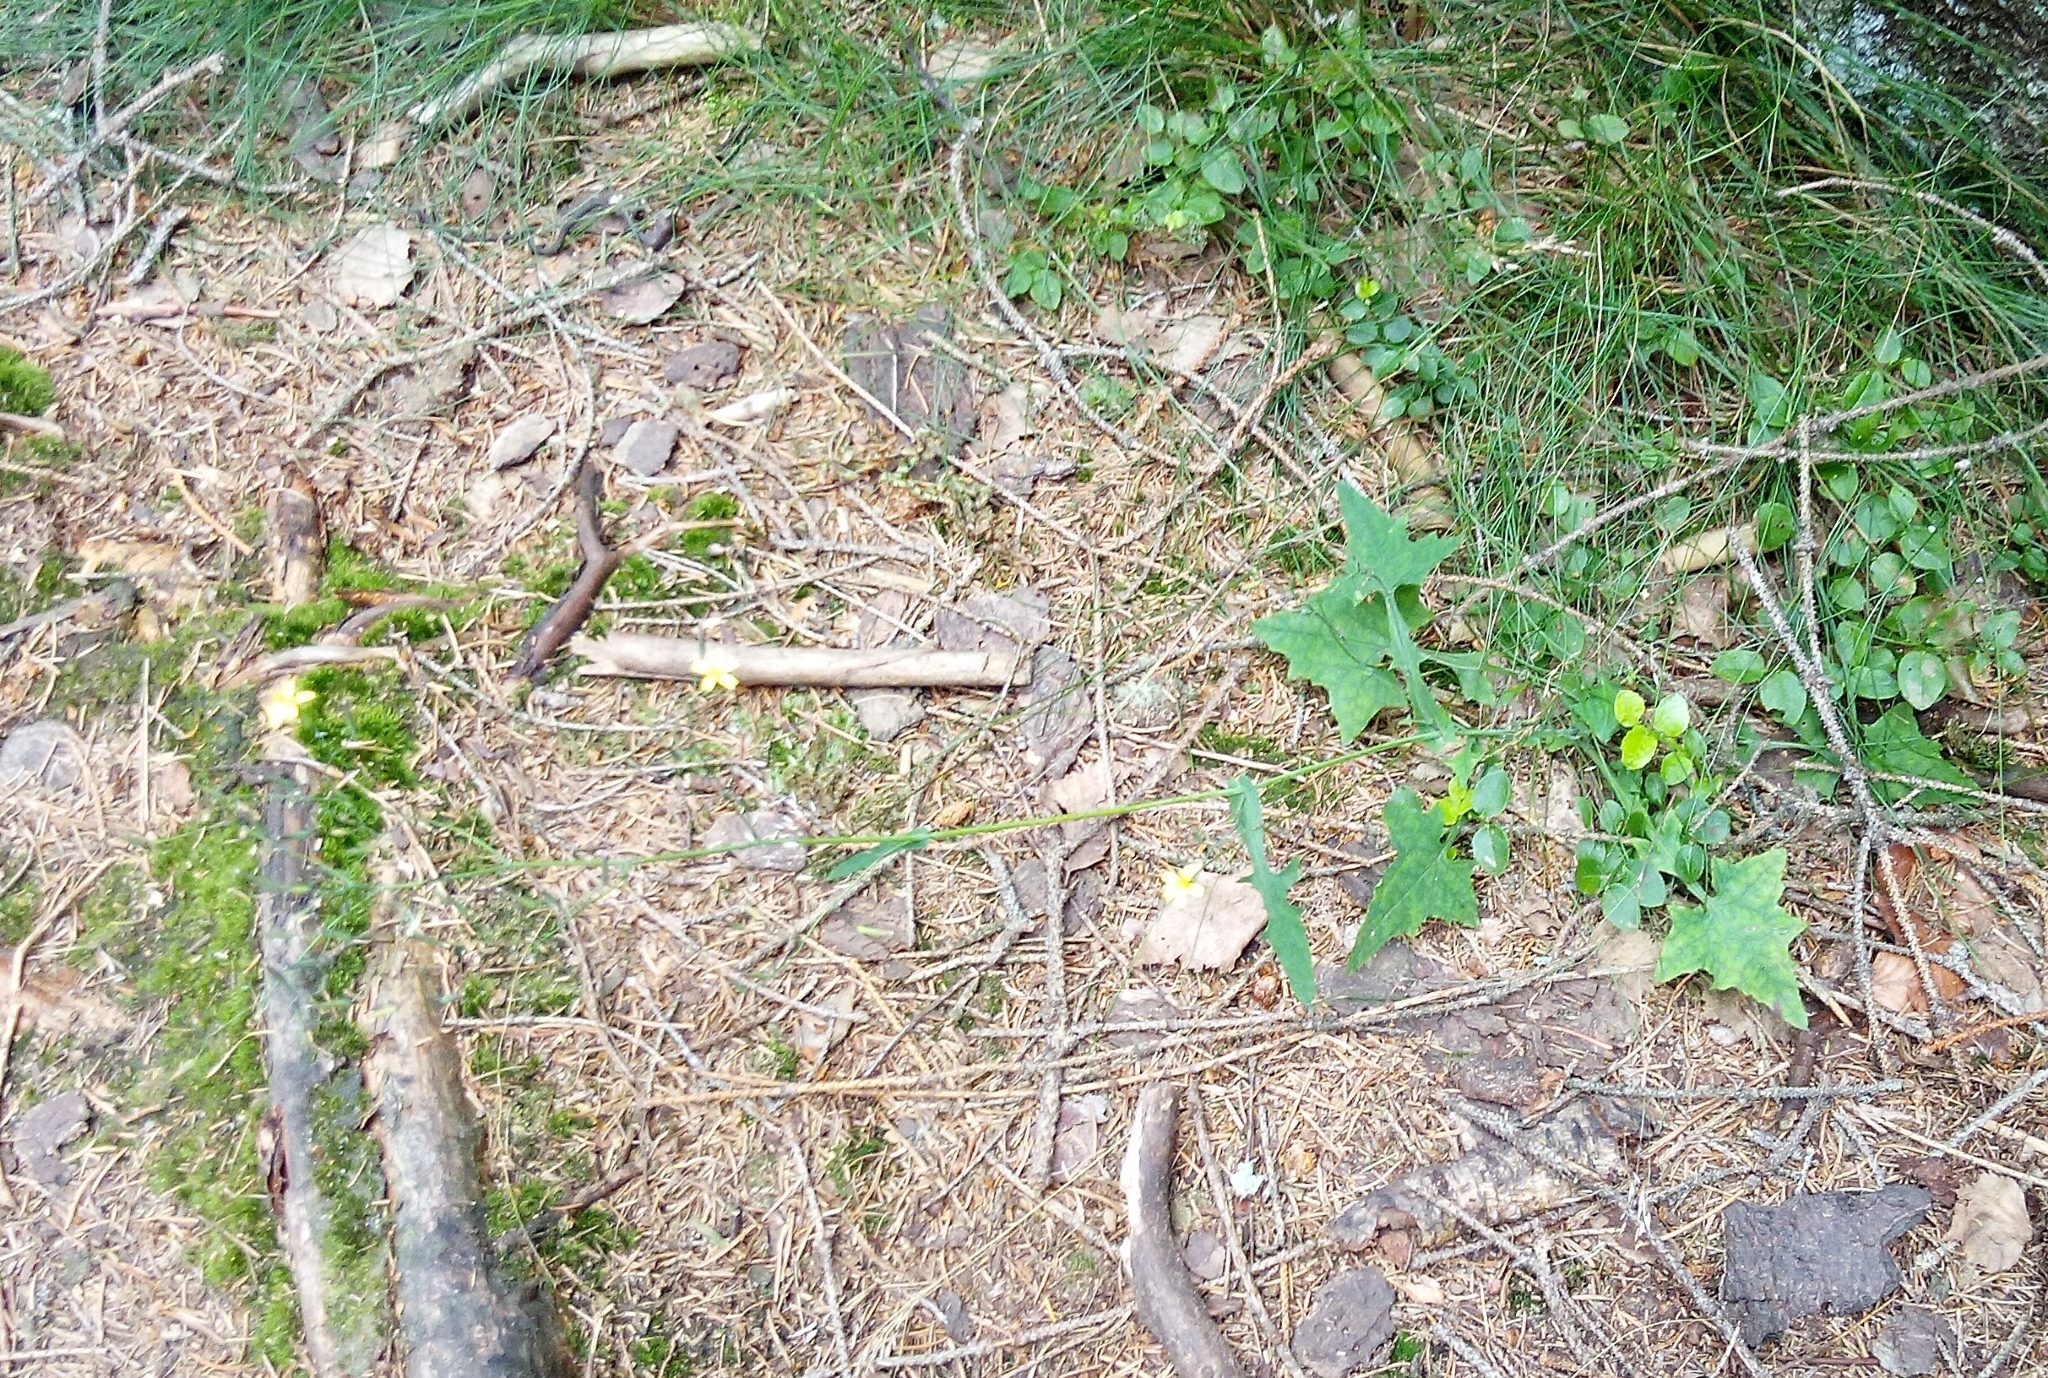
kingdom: Plantae
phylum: Tracheophyta
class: Magnoliopsida
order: Asterales
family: Asteraceae
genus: Mycelis
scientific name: Mycelis muralis
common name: Wall lettuce
